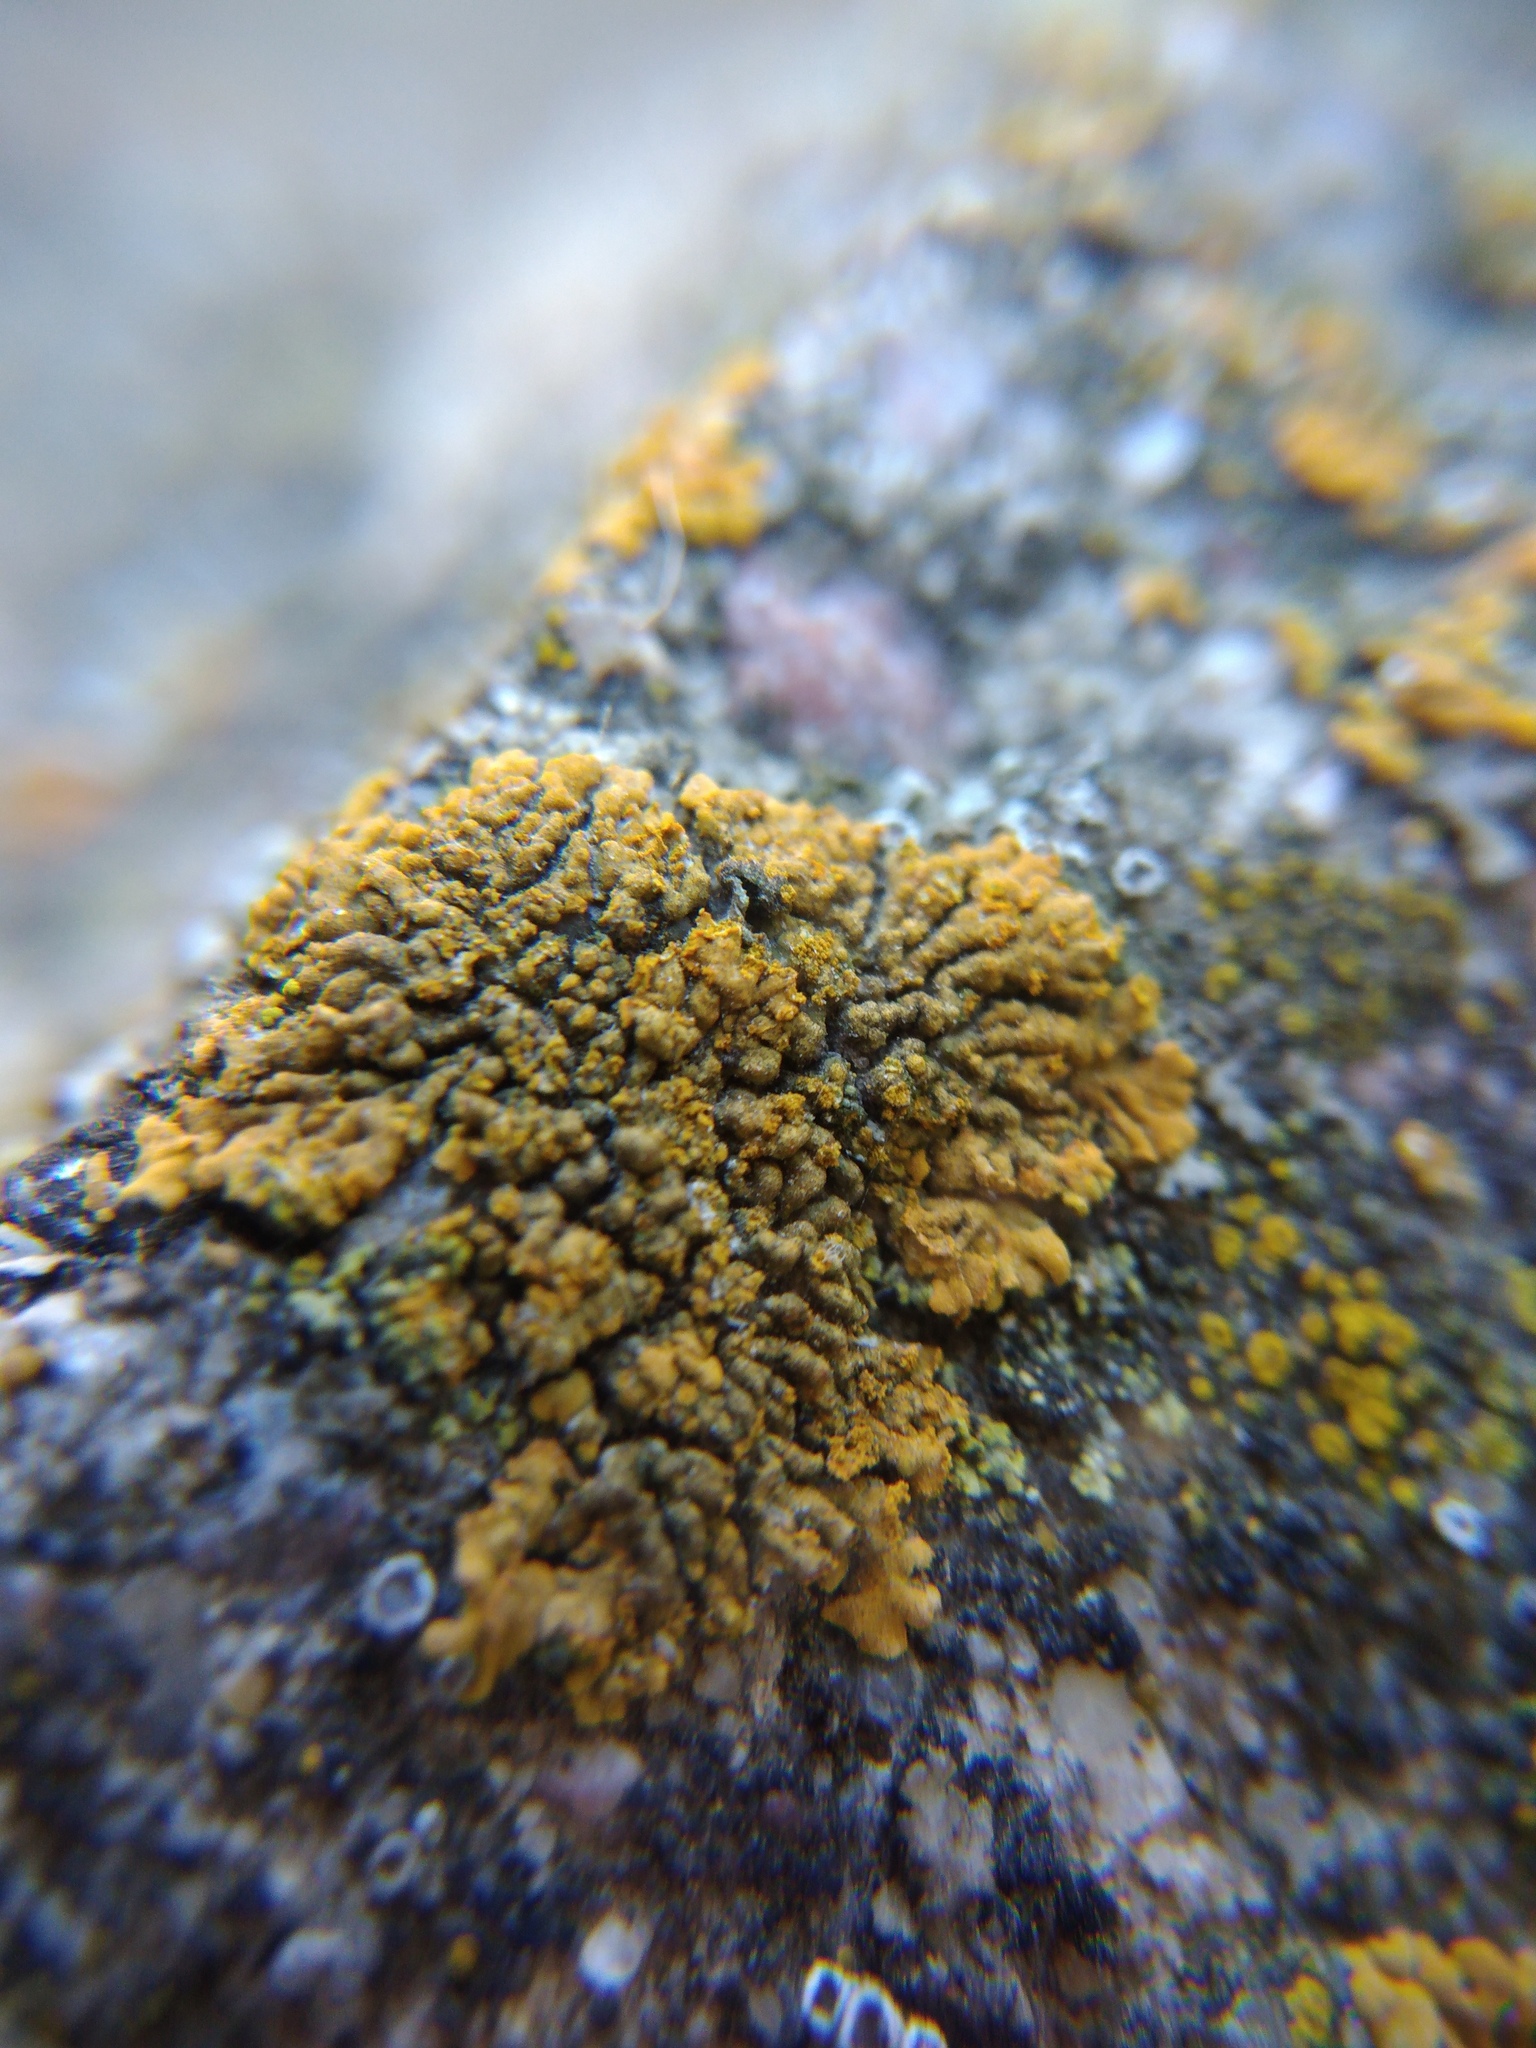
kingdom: Fungi
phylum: Ascomycota
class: Lecanoromycetes
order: Teloschistales
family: Teloschistaceae
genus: Calogaya
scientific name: Calogaya decipiens
